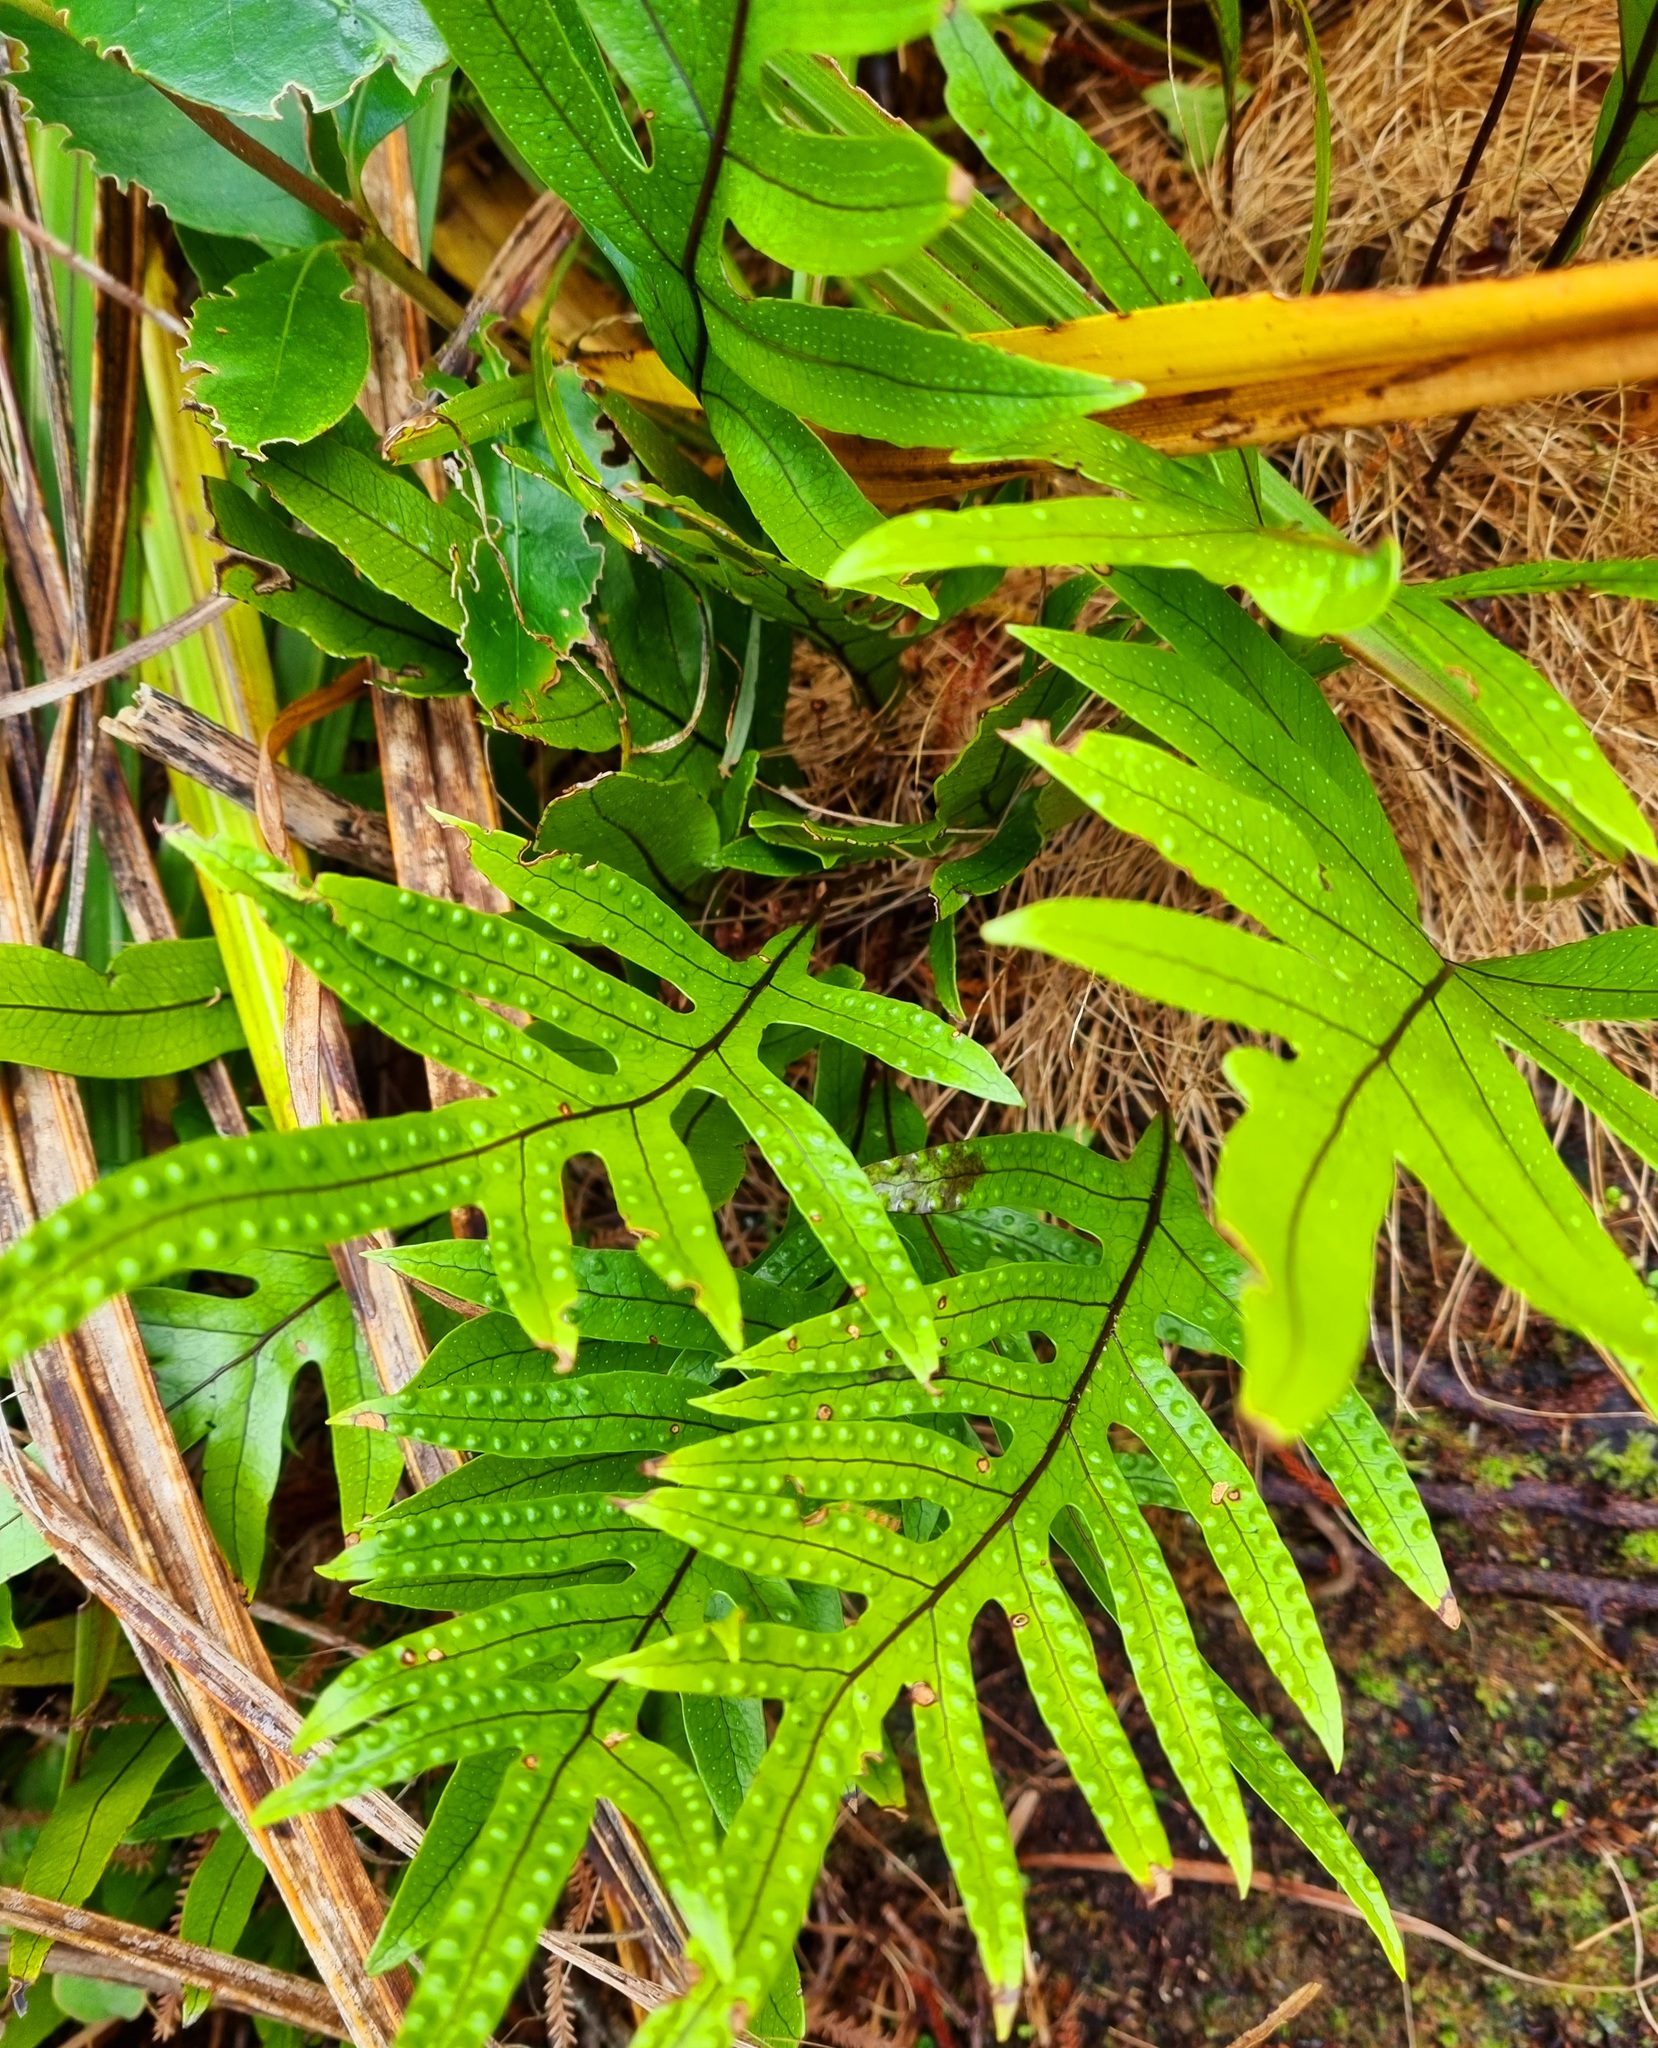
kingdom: Plantae
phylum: Tracheophyta
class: Polypodiopsida
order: Polypodiales
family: Polypodiaceae
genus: Lecanopteris
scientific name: Lecanopteris pustulata
